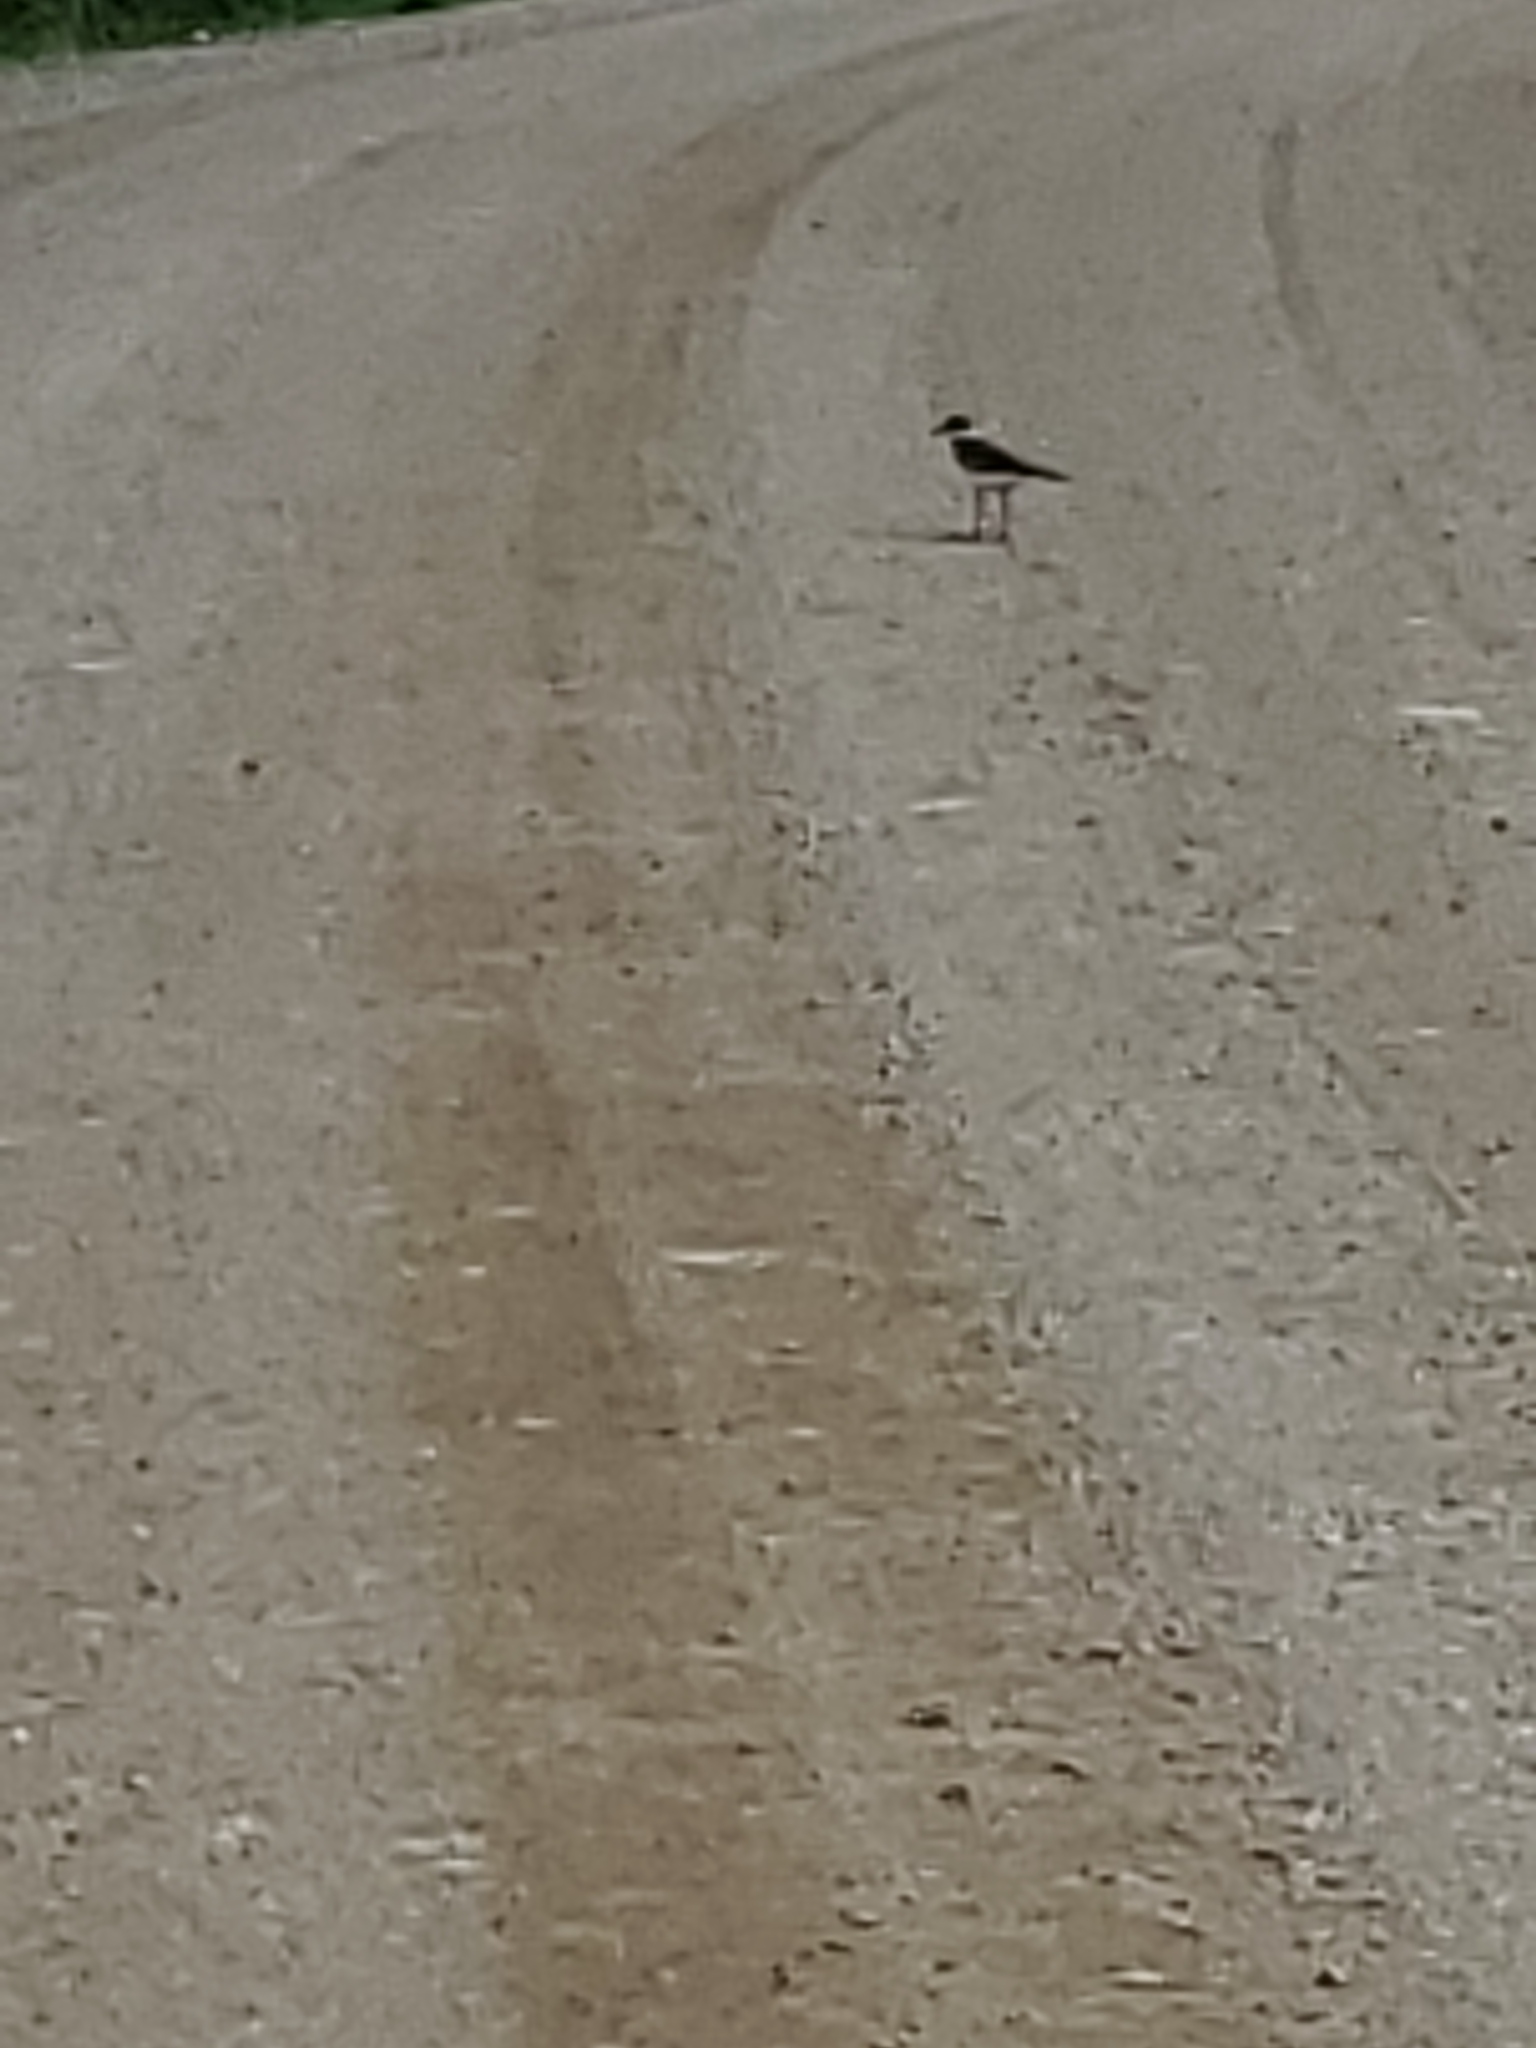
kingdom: Animalia
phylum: Chordata
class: Aves
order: Charadriiformes
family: Charadriidae
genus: Charadrius
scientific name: Charadrius vociferus
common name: Killdeer
